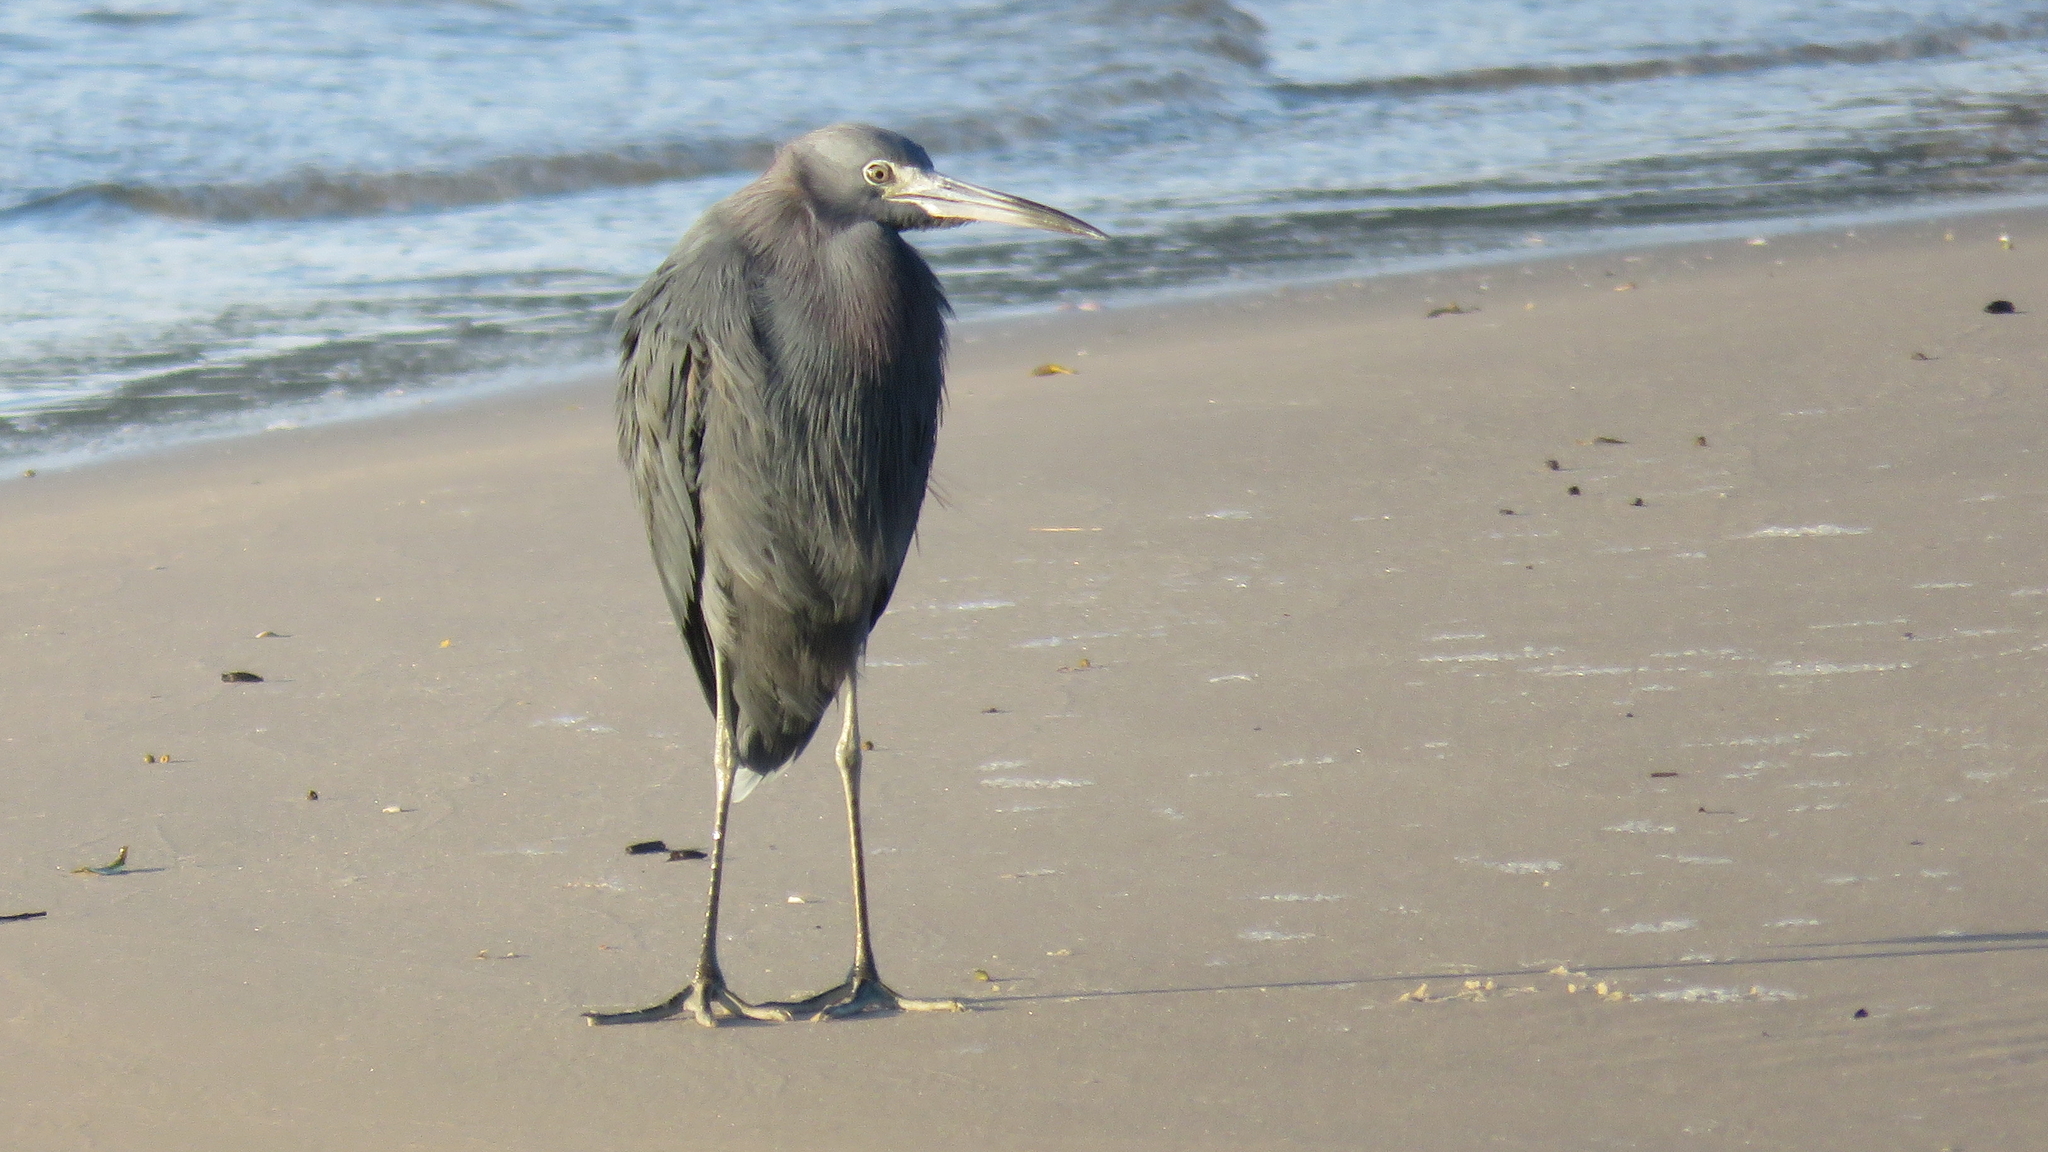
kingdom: Animalia
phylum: Chordata
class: Aves
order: Pelecaniformes
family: Ardeidae
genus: Egretta
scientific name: Egretta caerulea
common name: Little blue heron
